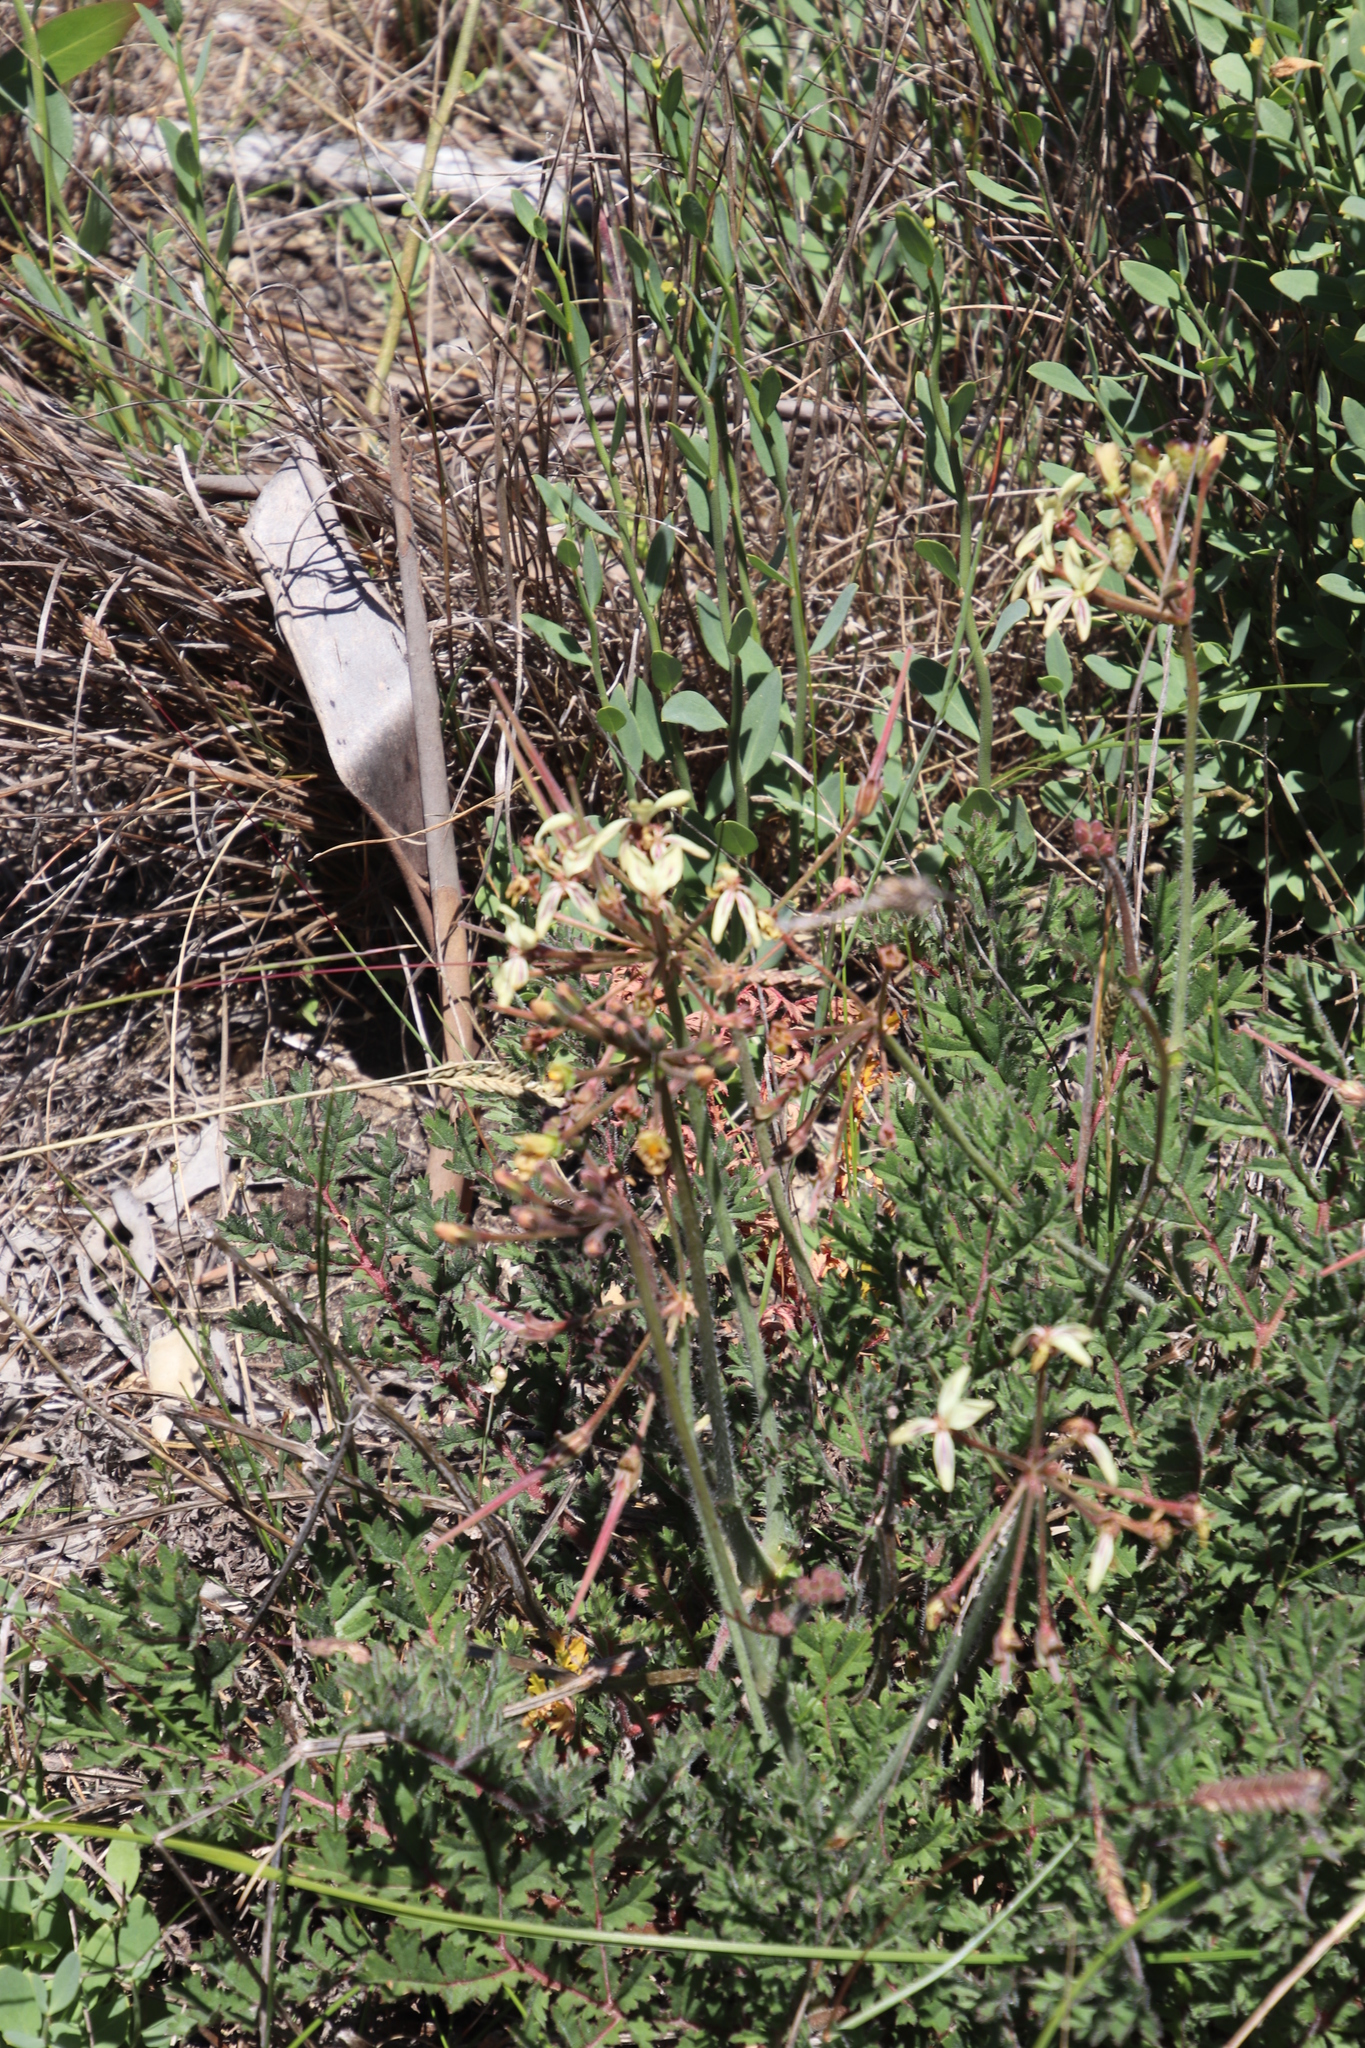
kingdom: Plantae
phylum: Tracheophyta
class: Magnoliopsida
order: Geraniales
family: Geraniaceae
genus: Pelargonium
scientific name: Pelargonium triste
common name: Night-scent pelargonium
